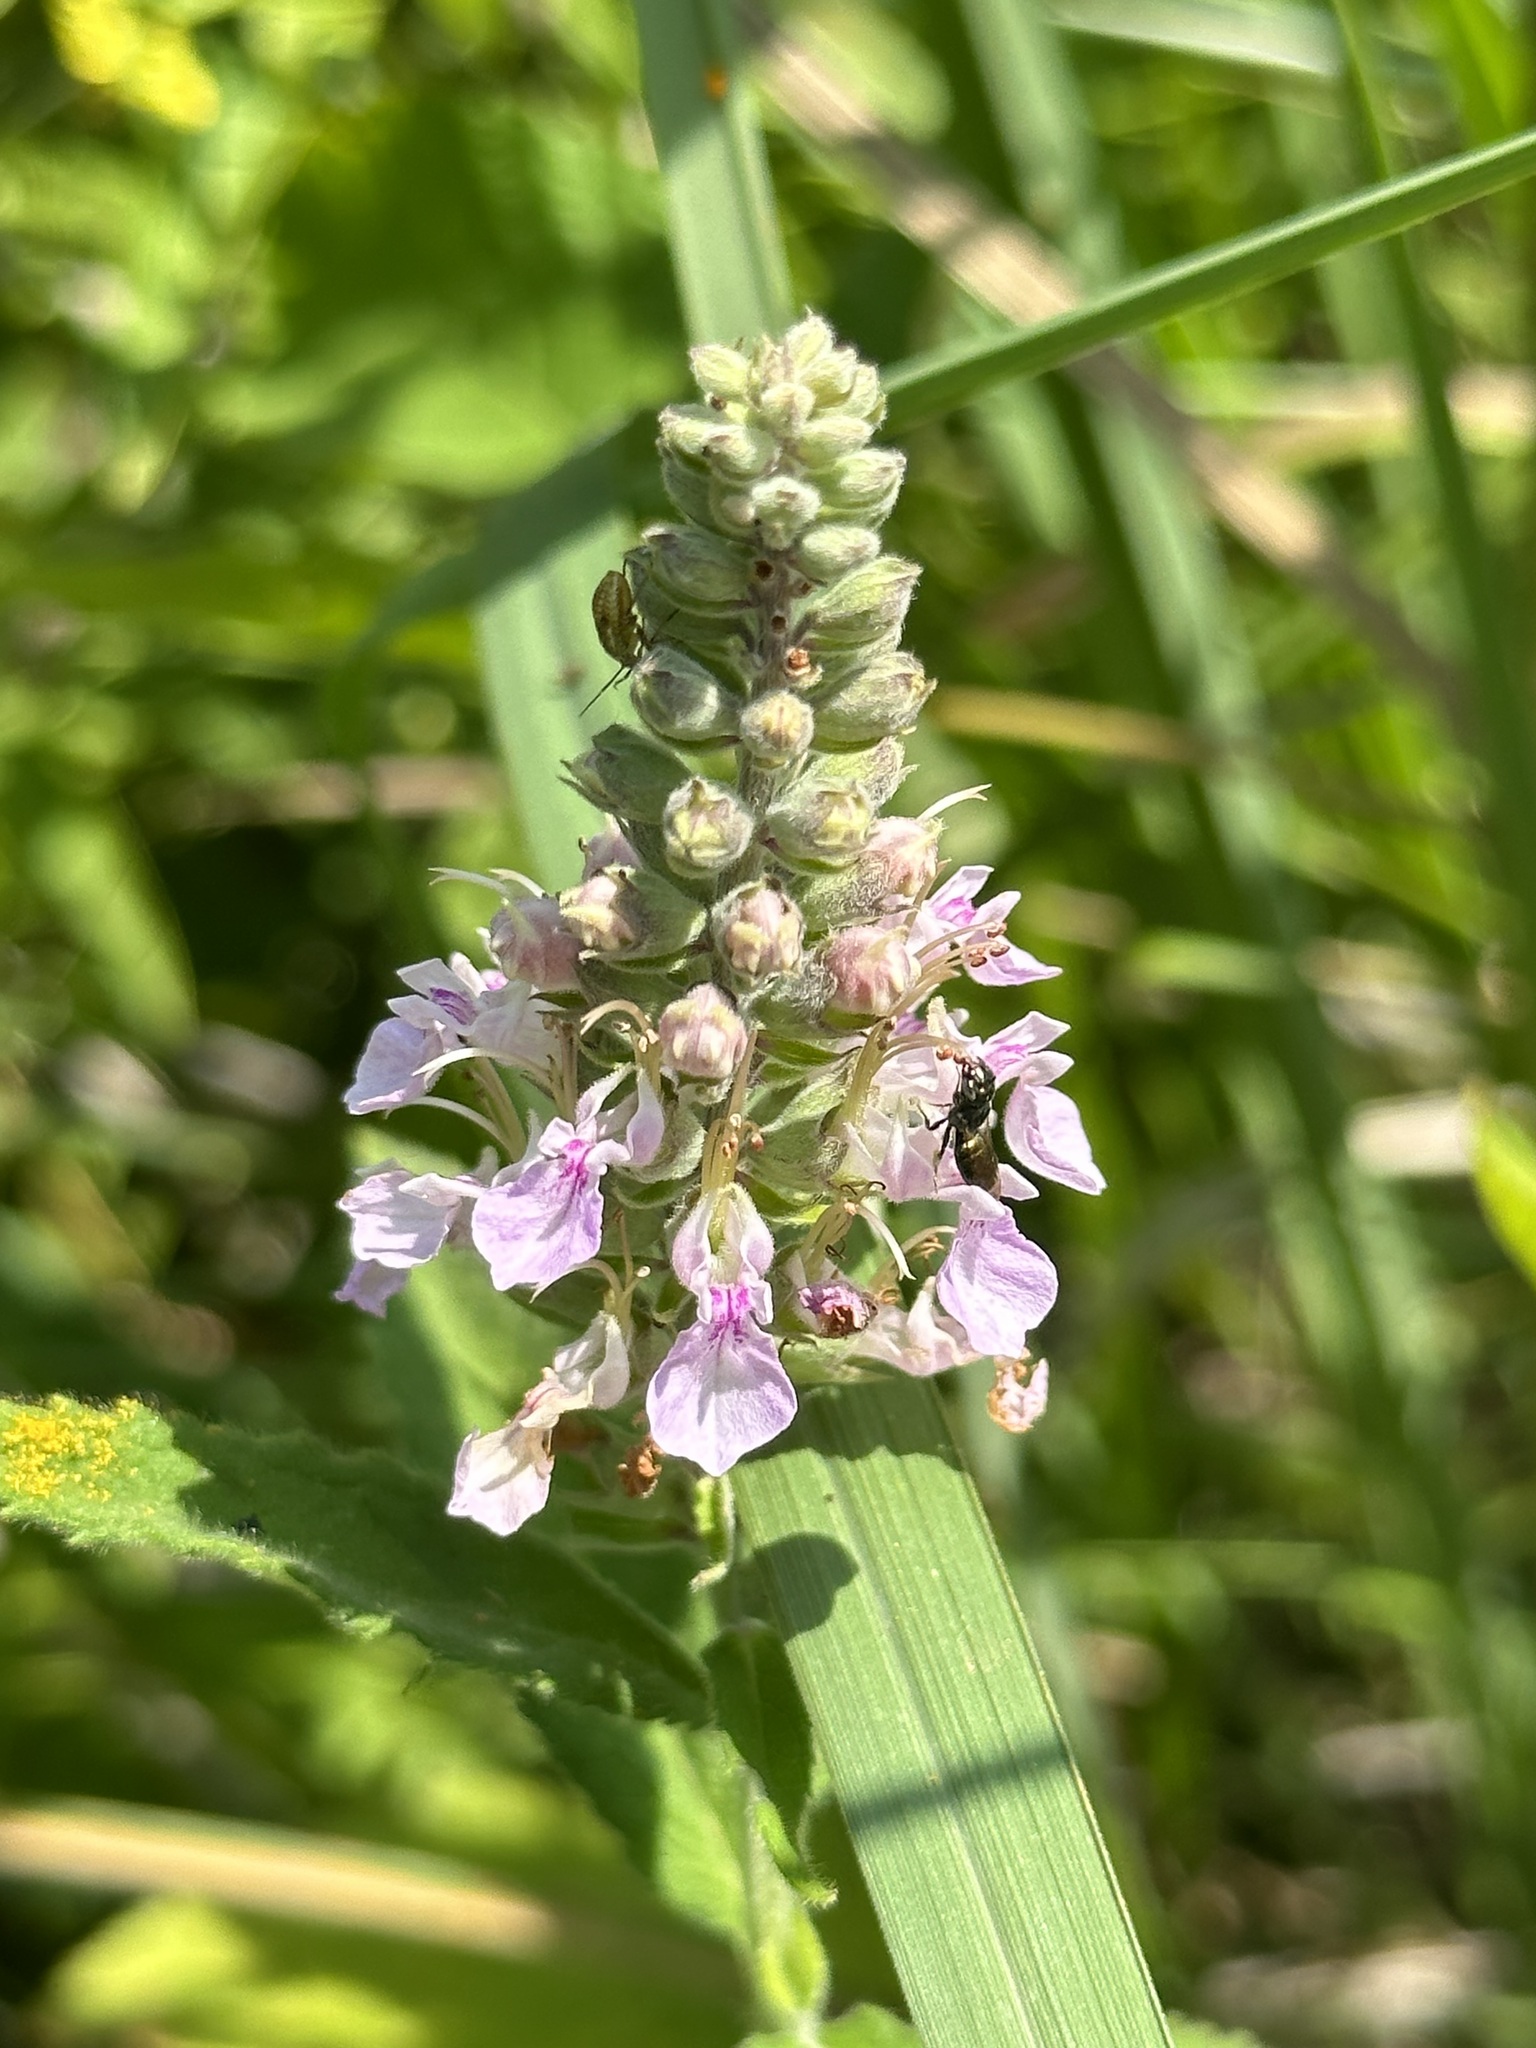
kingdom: Plantae
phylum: Tracheophyta
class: Magnoliopsida
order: Lamiales
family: Lamiaceae
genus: Teucrium
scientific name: Teucrium canadense
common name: American germander
